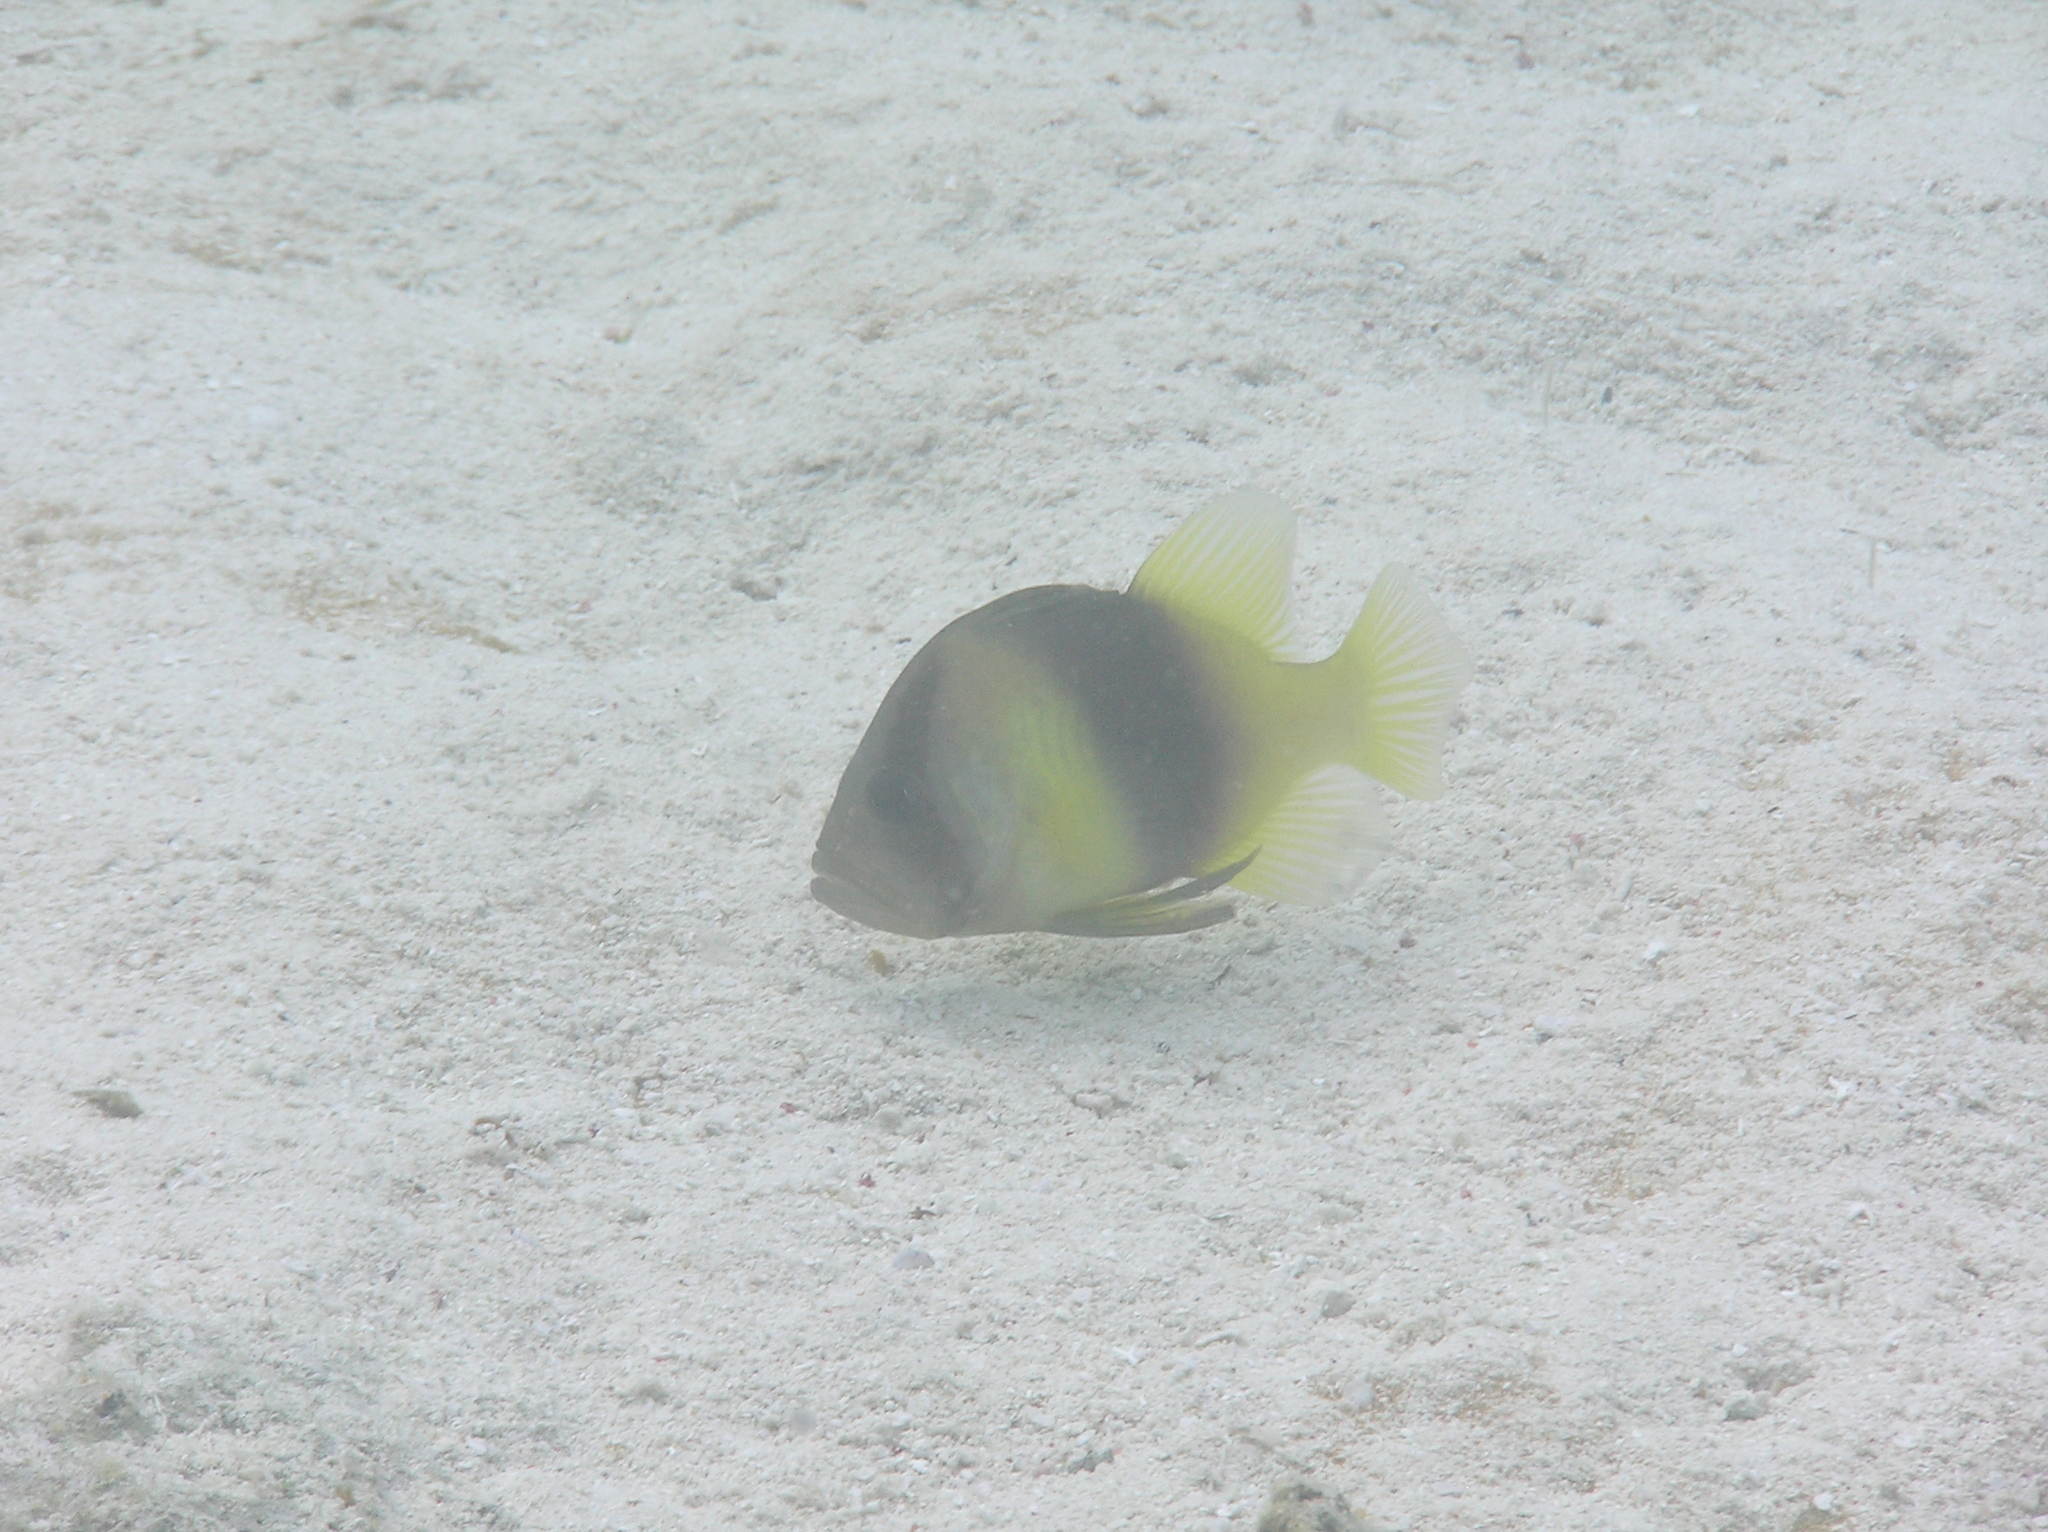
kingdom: Animalia
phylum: Chordata
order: Perciformes
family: Serranidae
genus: Diploprion
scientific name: Diploprion bifasciatum
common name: Barred soapfish
